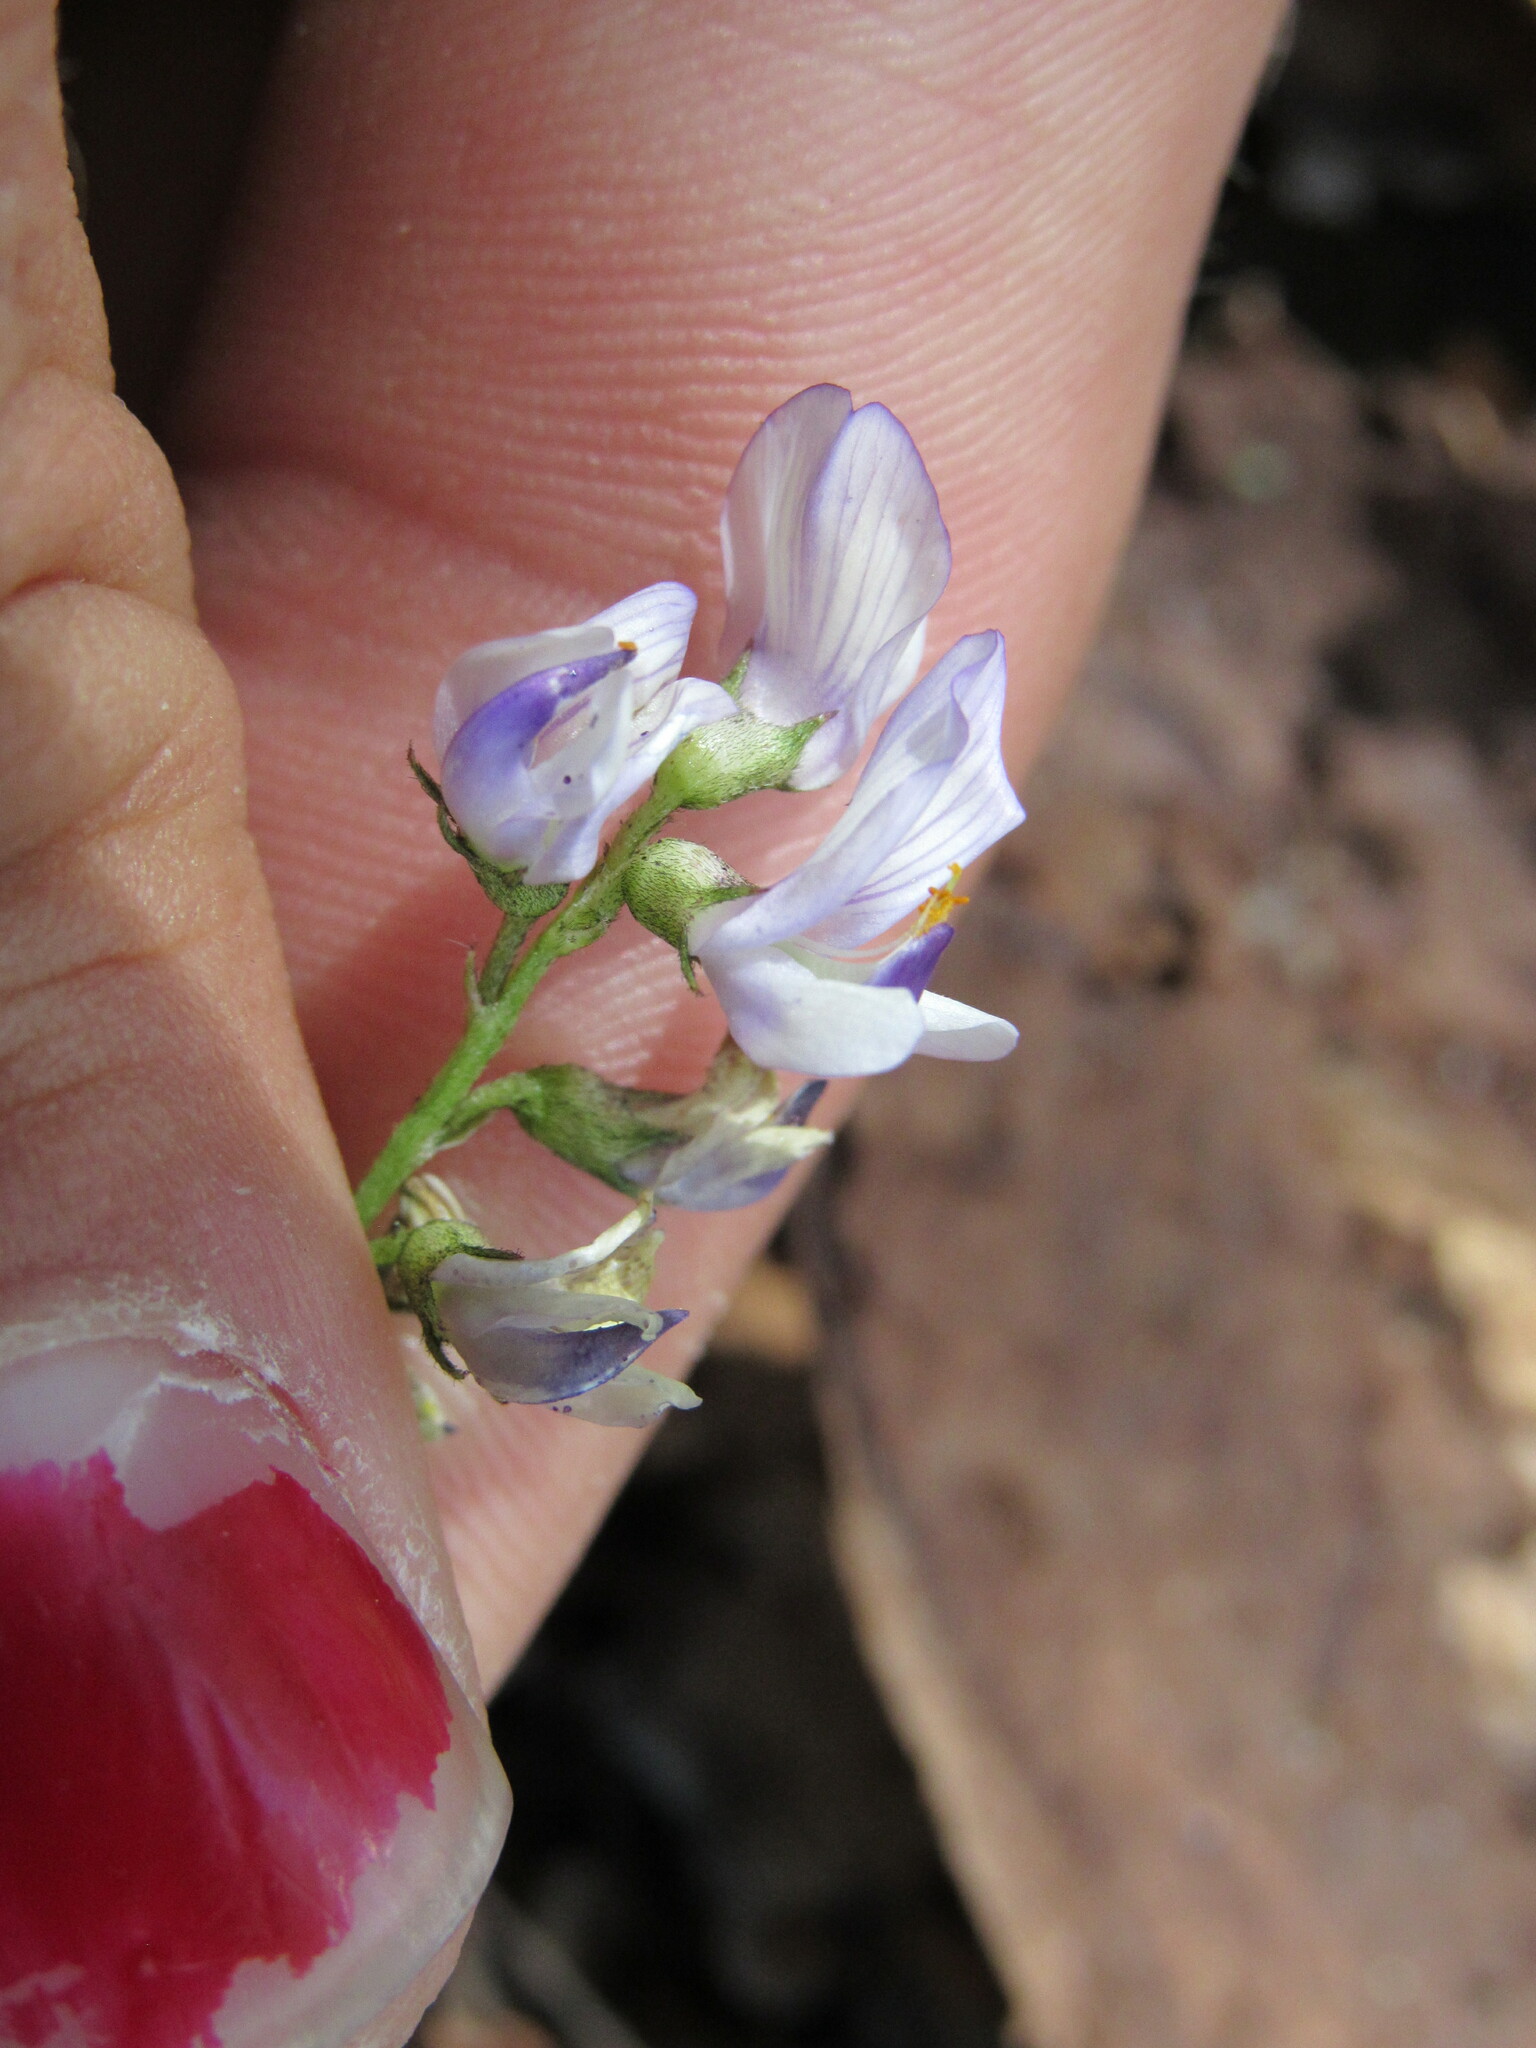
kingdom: Plantae
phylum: Tracheophyta
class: Magnoliopsida
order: Fabales
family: Fabaceae
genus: Astragalus
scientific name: Astragalus miser
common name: Timber milkvetch
